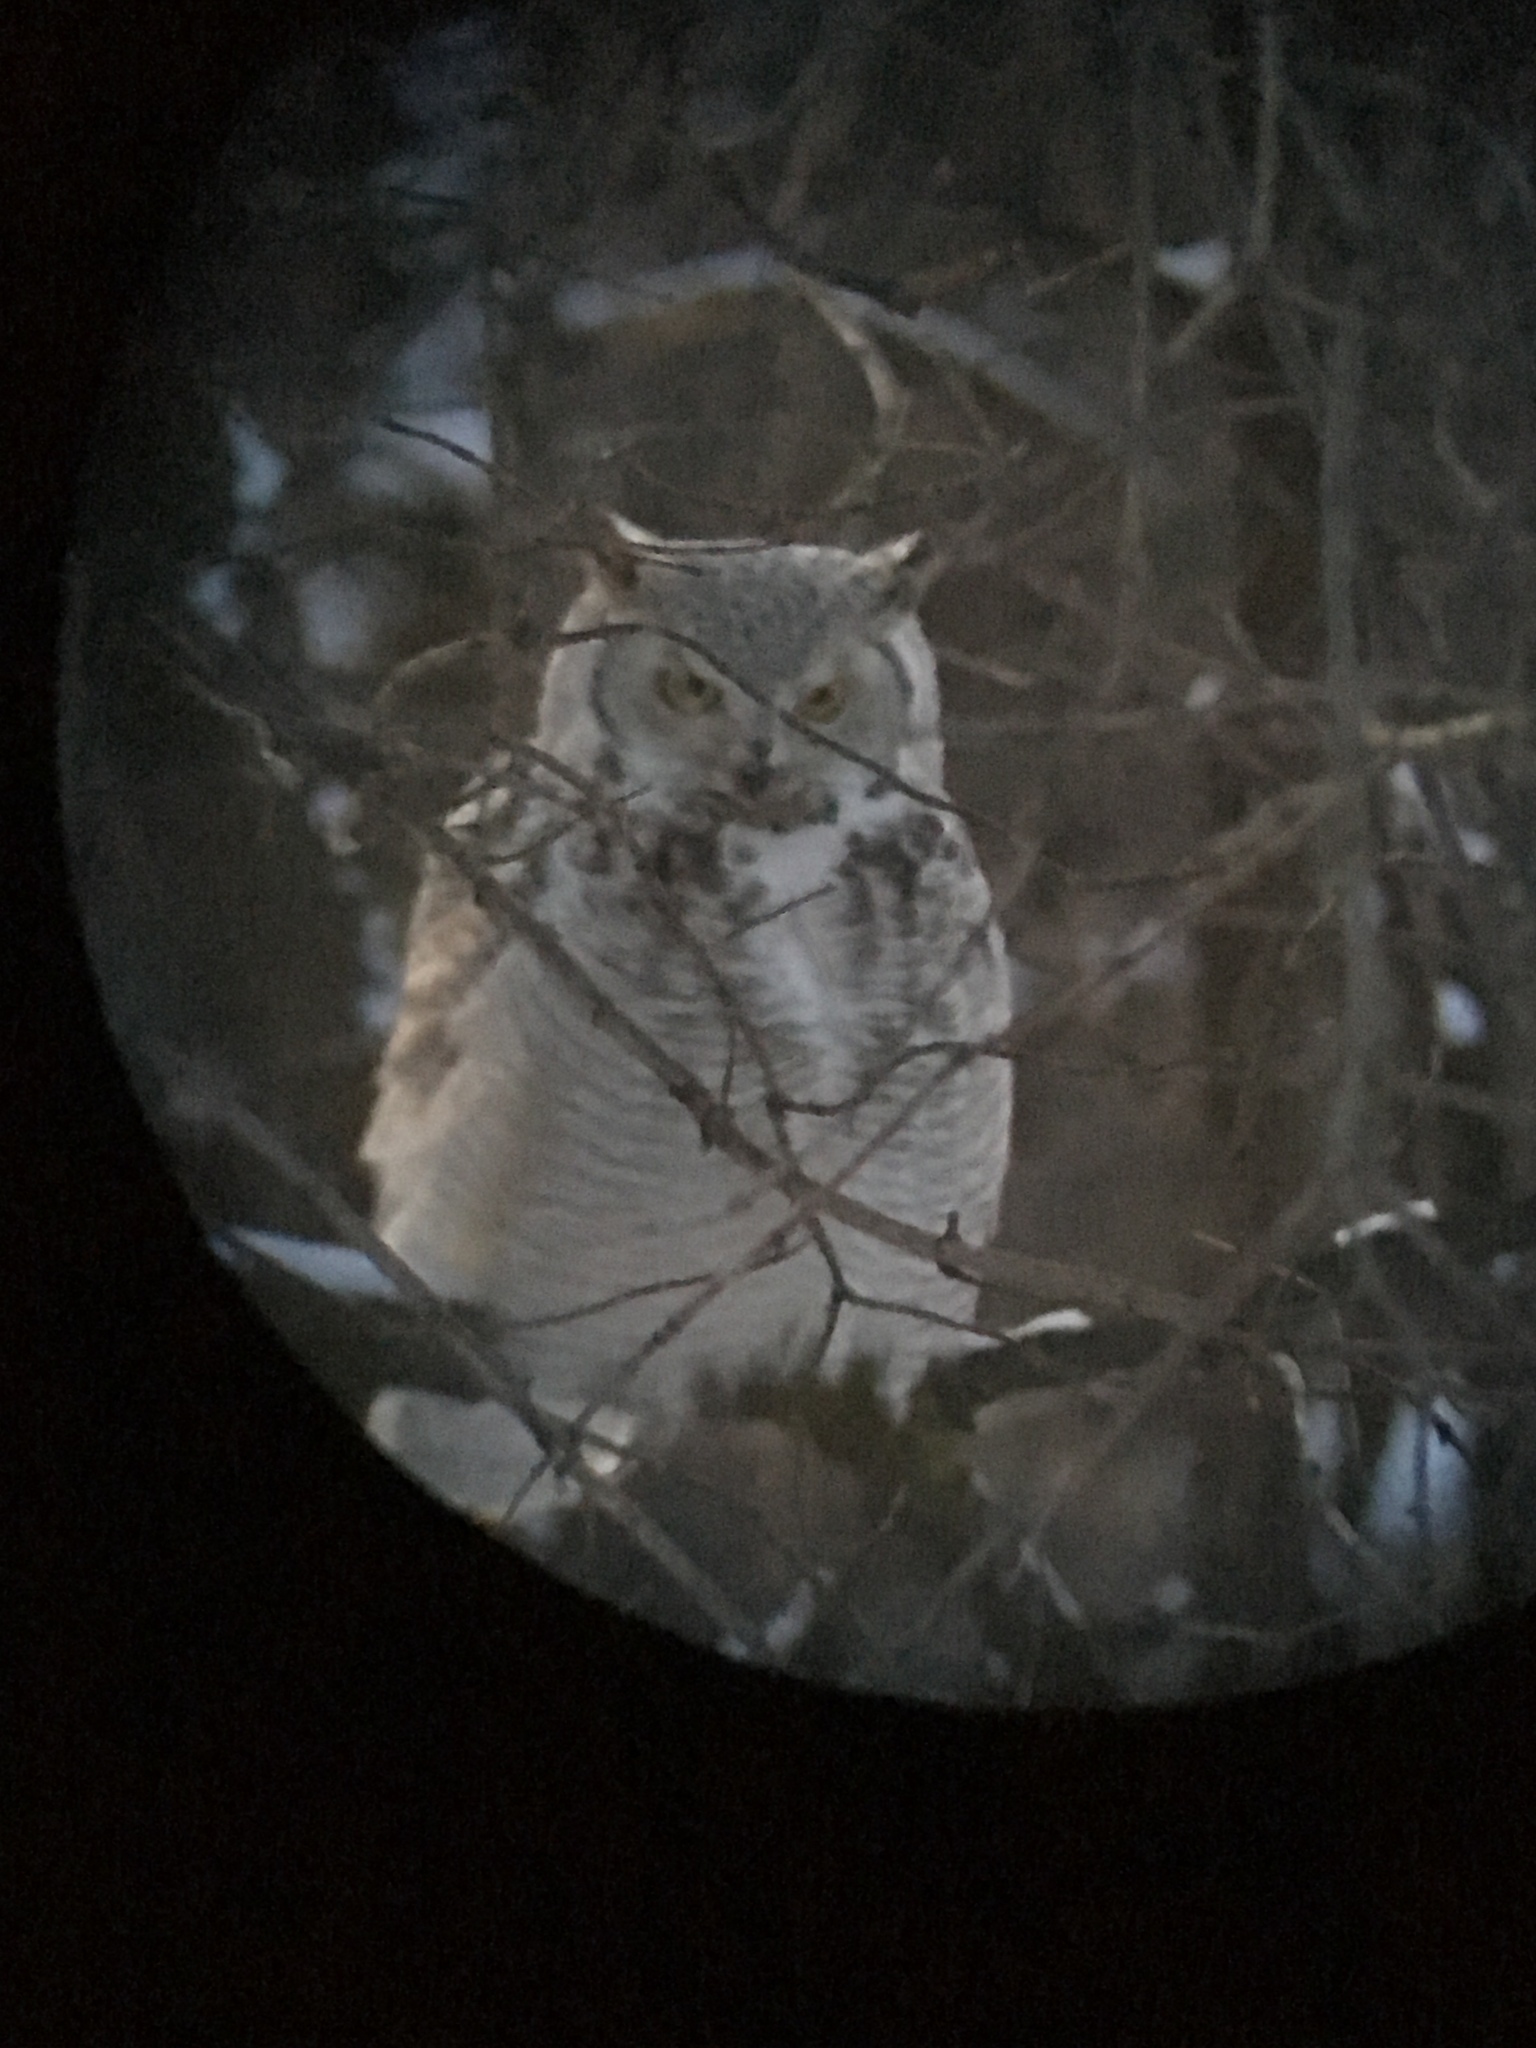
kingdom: Animalia
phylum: Chordata
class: Aves
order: Strigiformes
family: Strigidae
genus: Bubo
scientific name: Bubo virginianus
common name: Great horned owl
